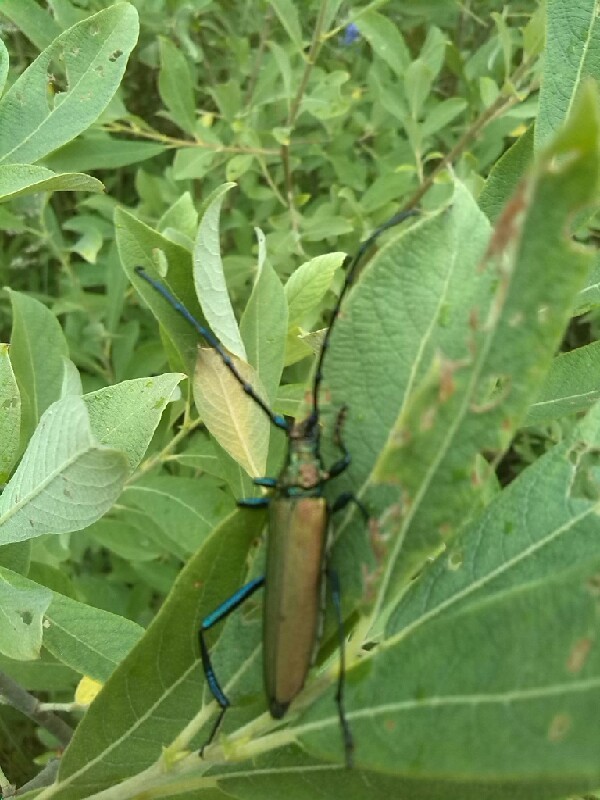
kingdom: Animalia
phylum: Arthropoda
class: Insecta
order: Coleoptera
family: Cerambycidae
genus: Aromia
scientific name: Aromia moschata
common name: Musk beetle
